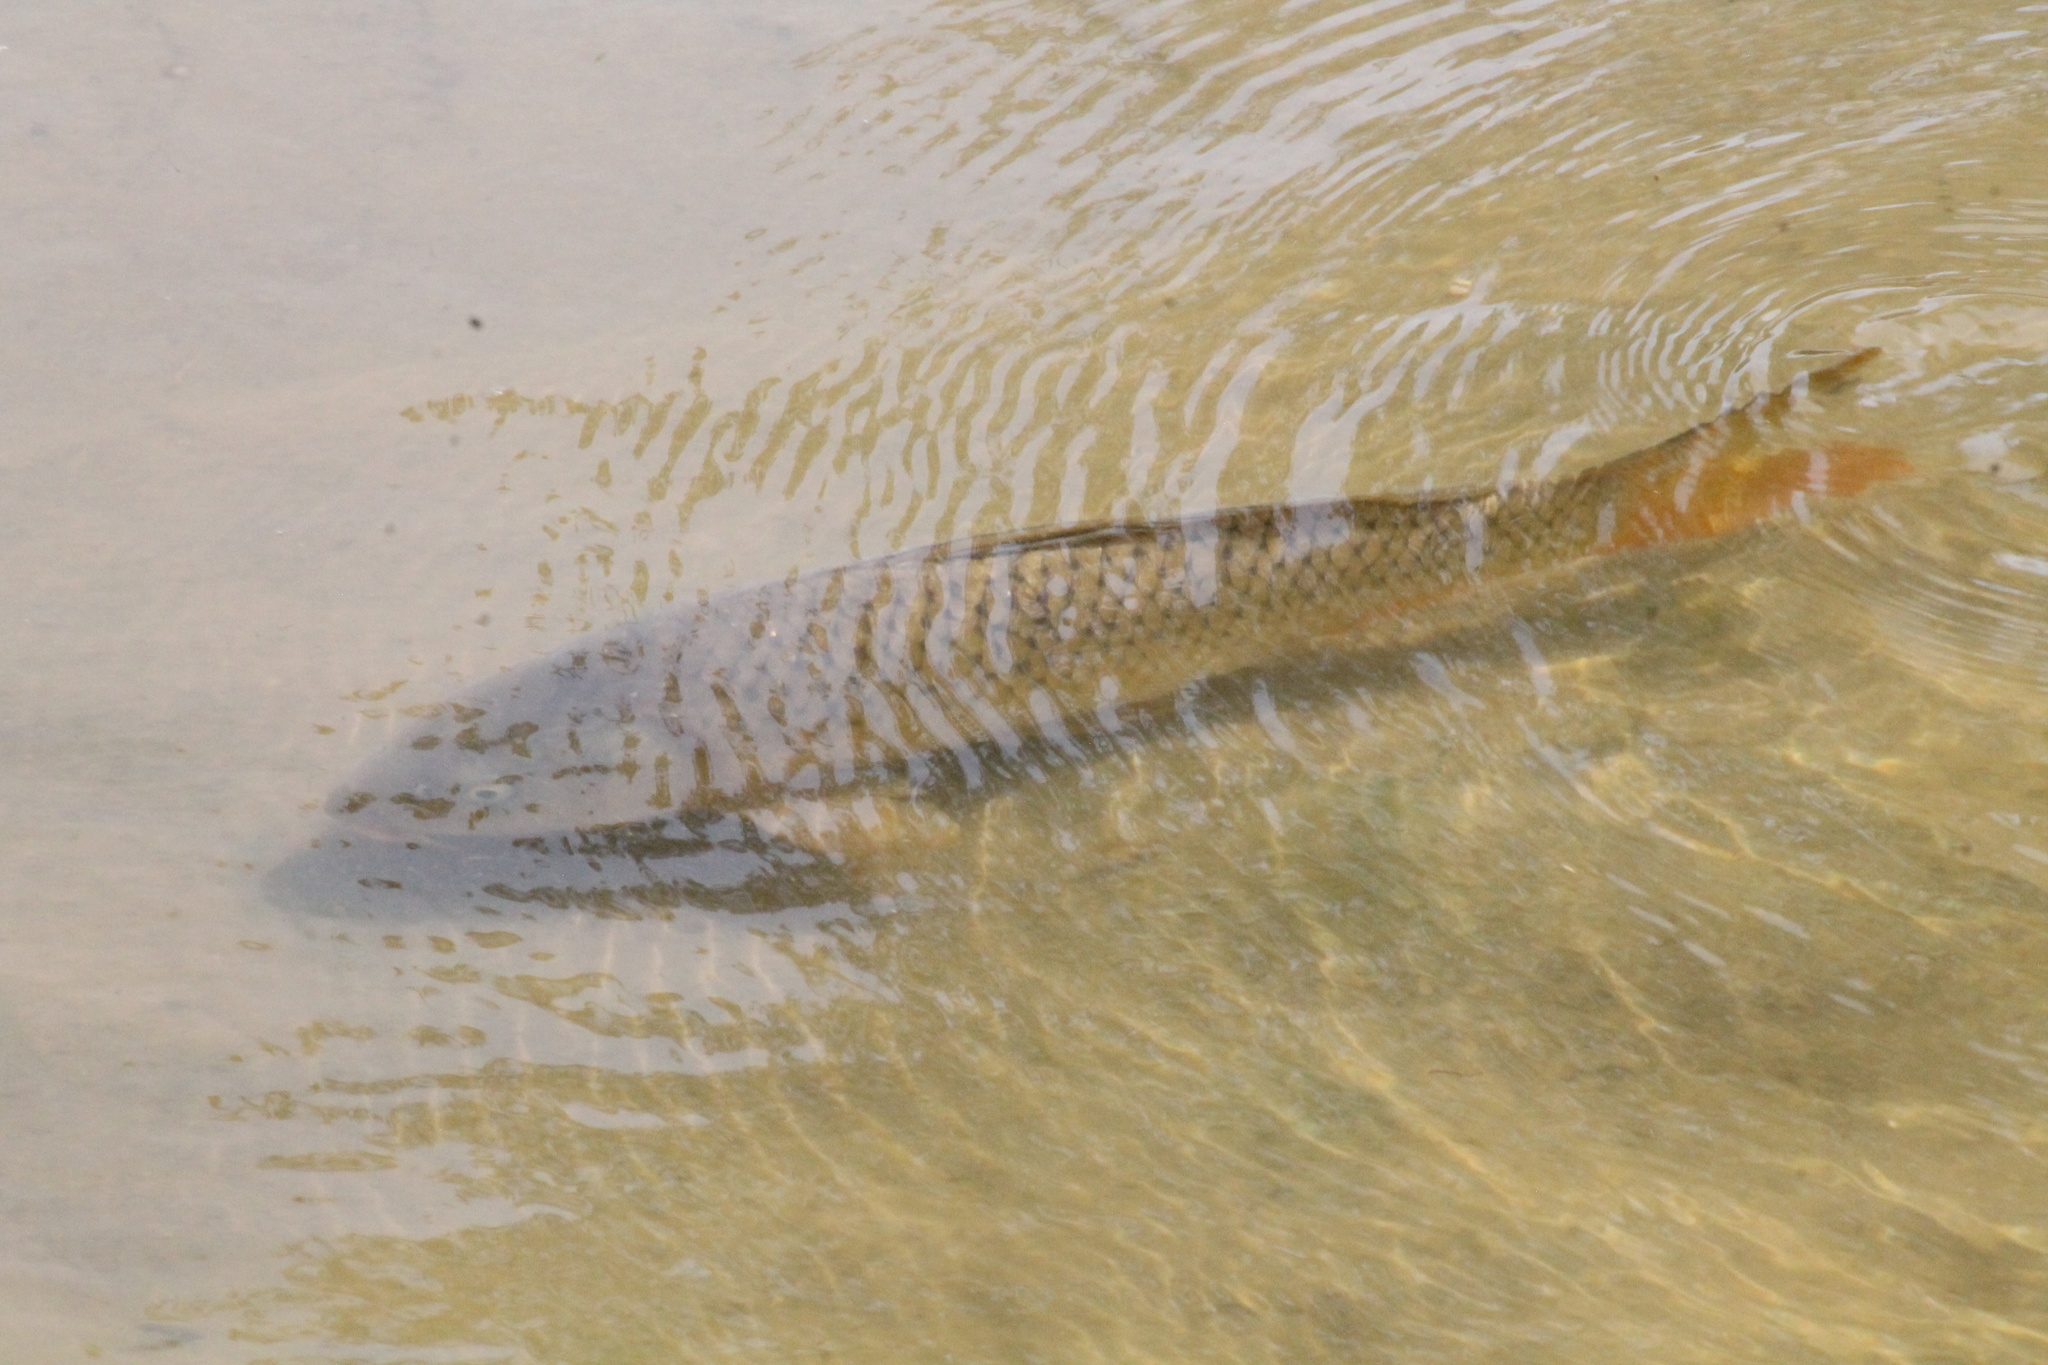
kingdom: Animalia
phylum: Chordata
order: Cypriniformes
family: Cyprinidae
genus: Cyprinus
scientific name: Cyprinus carpio
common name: Common carp
